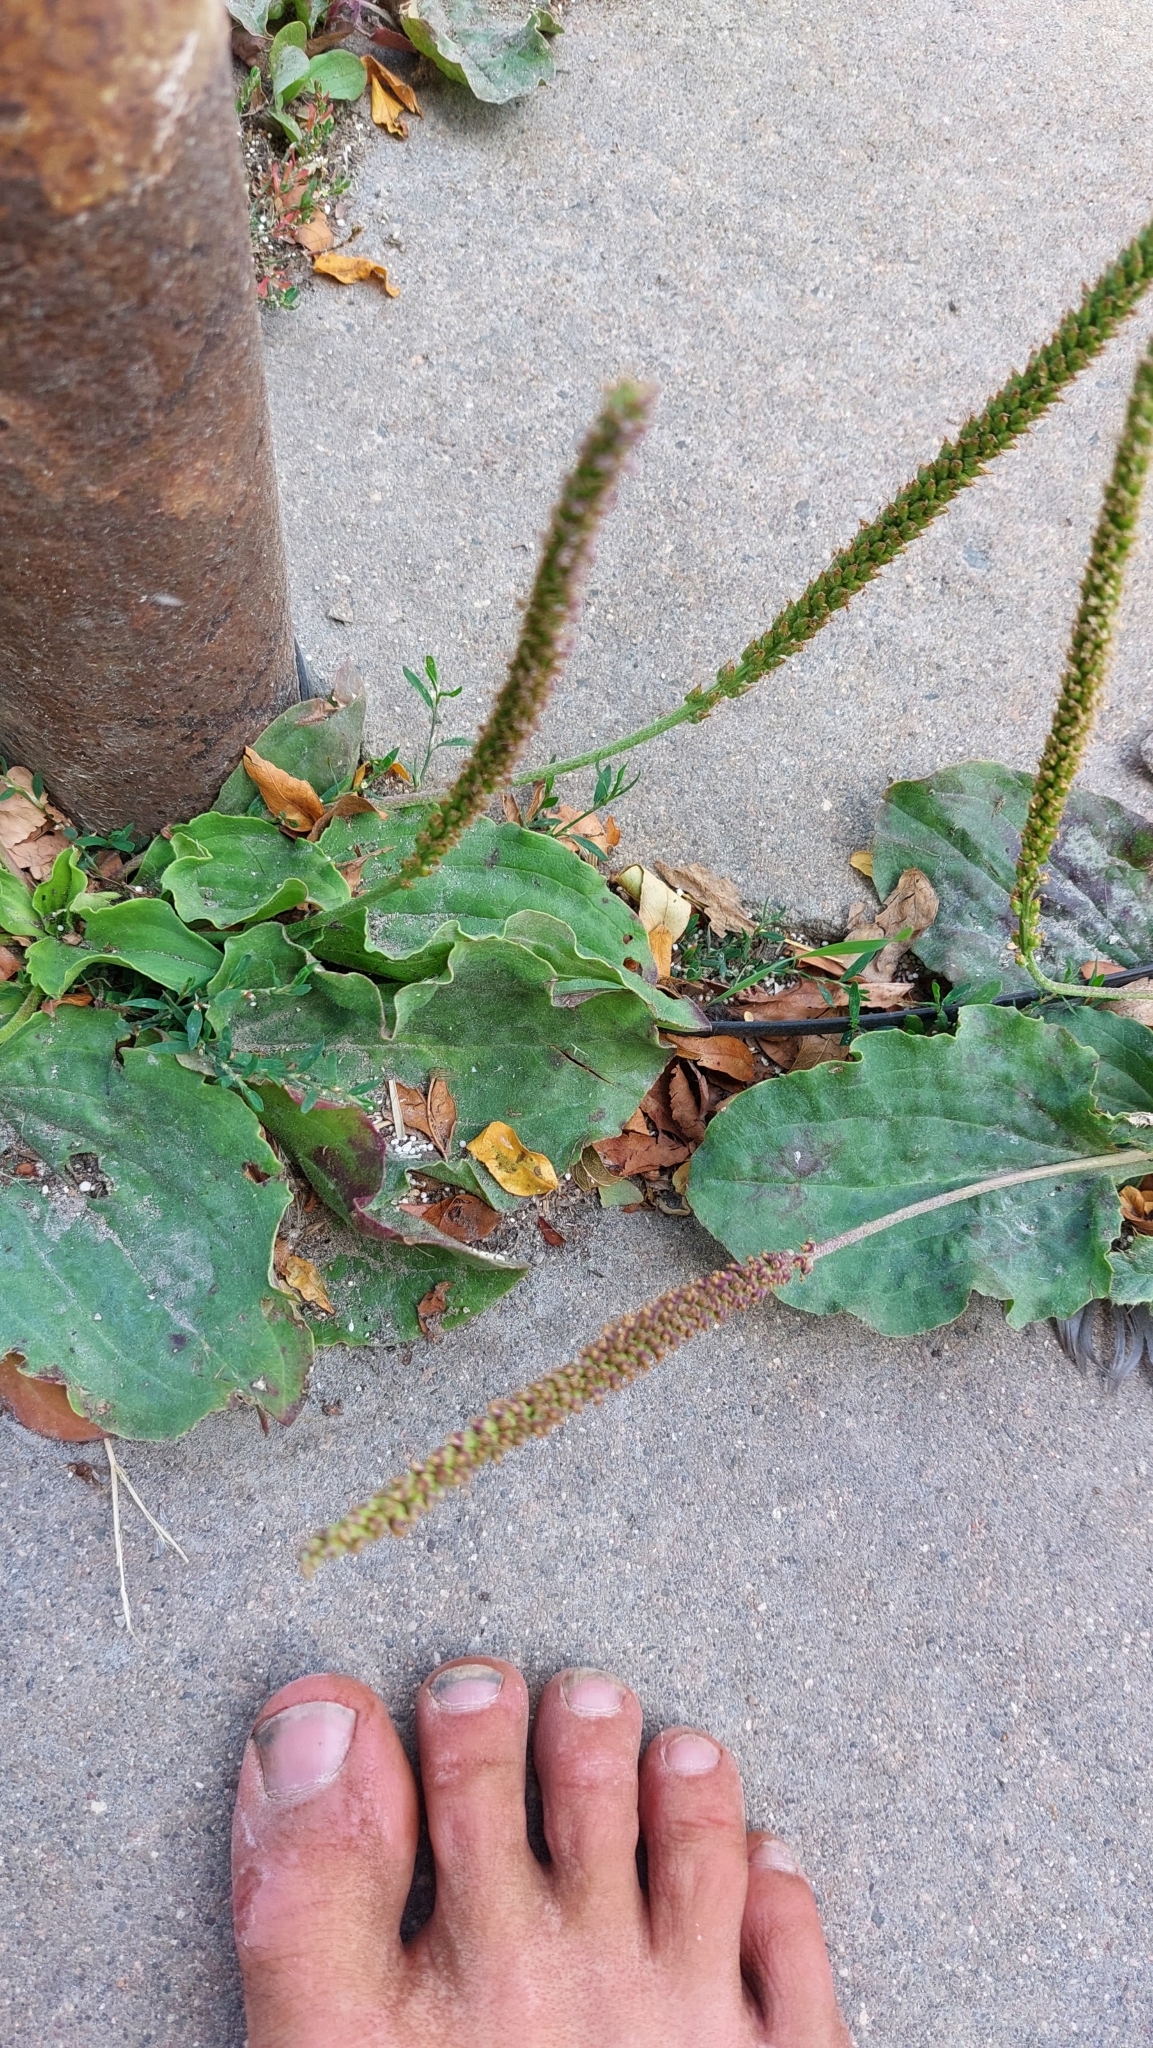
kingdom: Plantae
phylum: Tracheophyta
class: Magnoliopsida
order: Lamiales
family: Plantaginaceae
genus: Plantago
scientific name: Plantago major
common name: Common plantain
